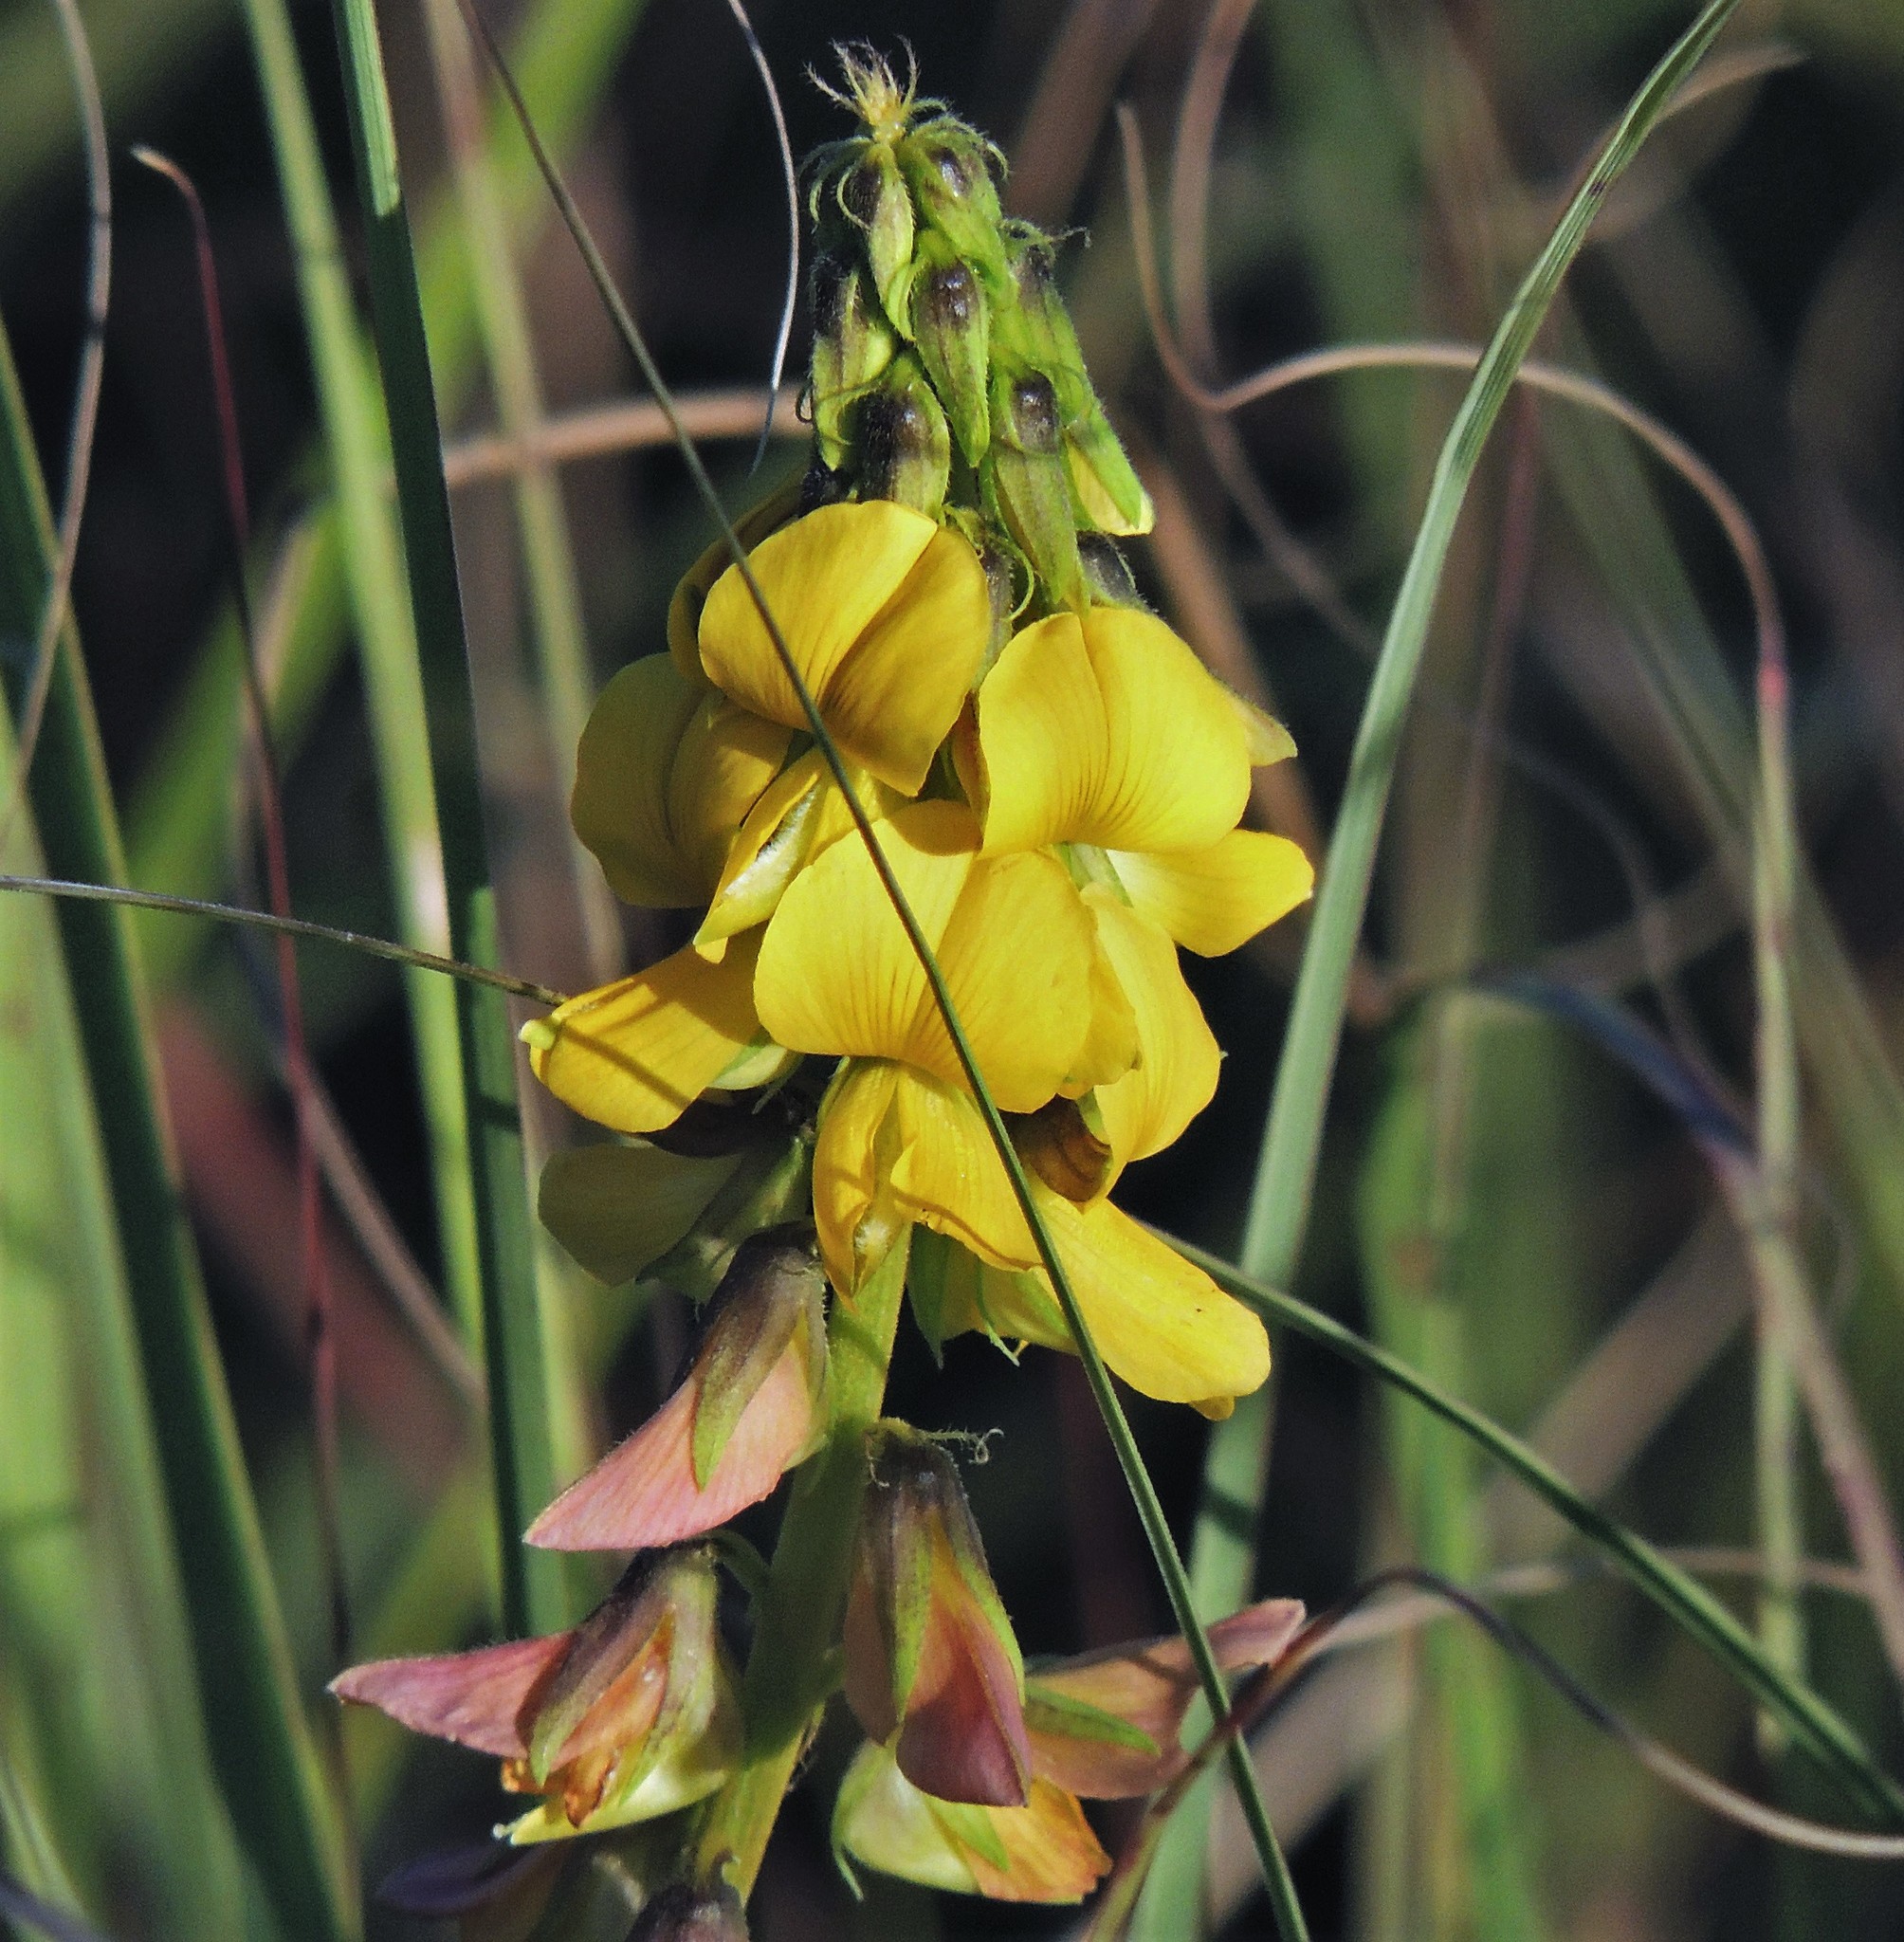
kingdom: Plantae
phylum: Tracheophyta
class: Magnoliopsida
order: Fabales
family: Fabaceae
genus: Crotalaria
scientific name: Crotalaria incana
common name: Shakeshake
